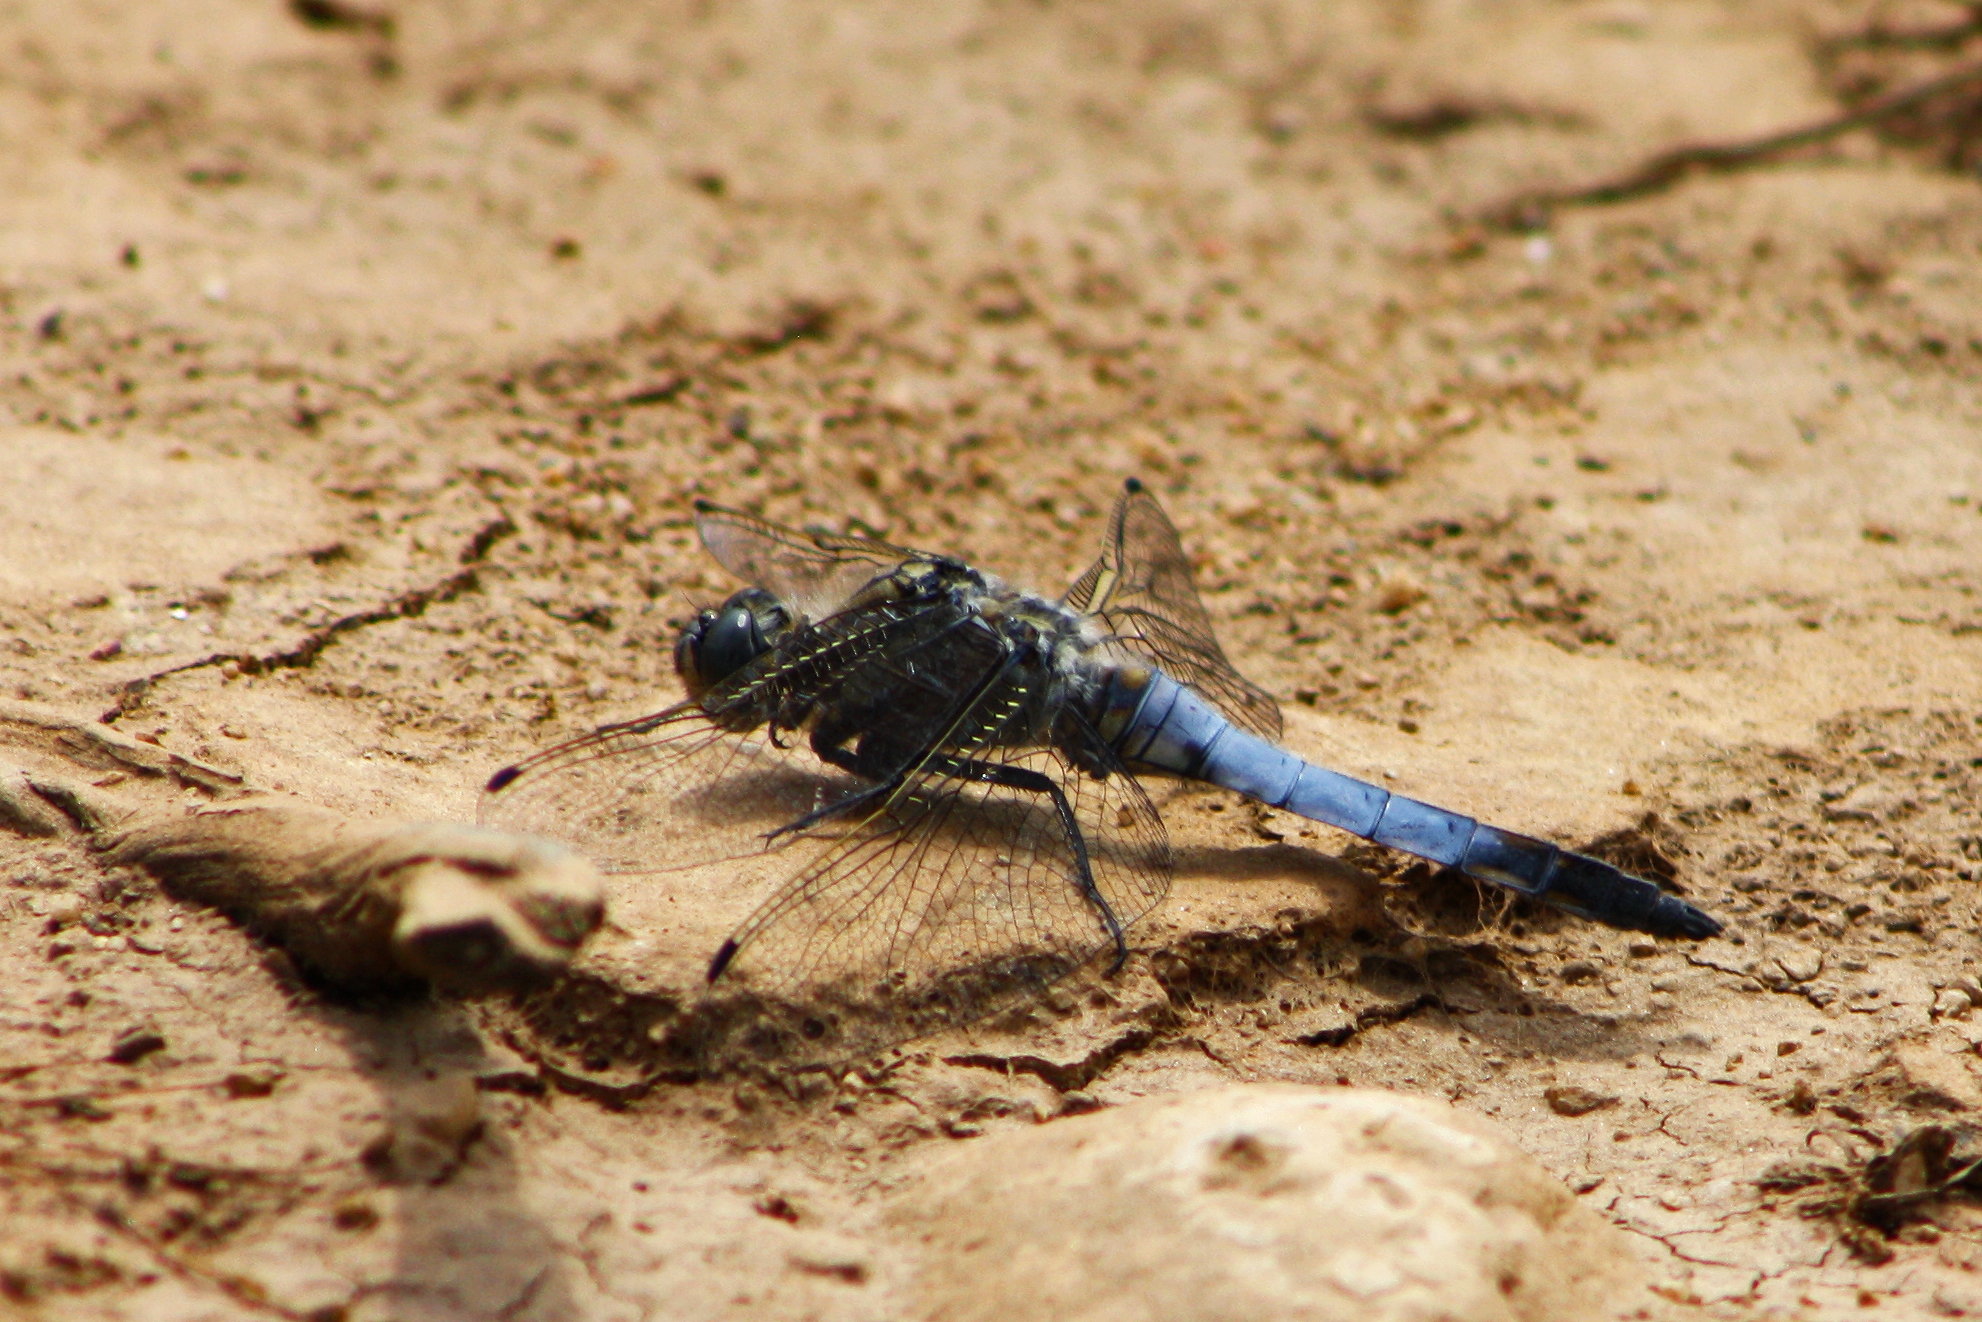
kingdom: Animalia
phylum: Arthropoda
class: Insecta
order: Odonata
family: Libellulidae
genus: Orthetrum
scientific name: Orthetrum cancellatum
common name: Black-tailed skimmer
